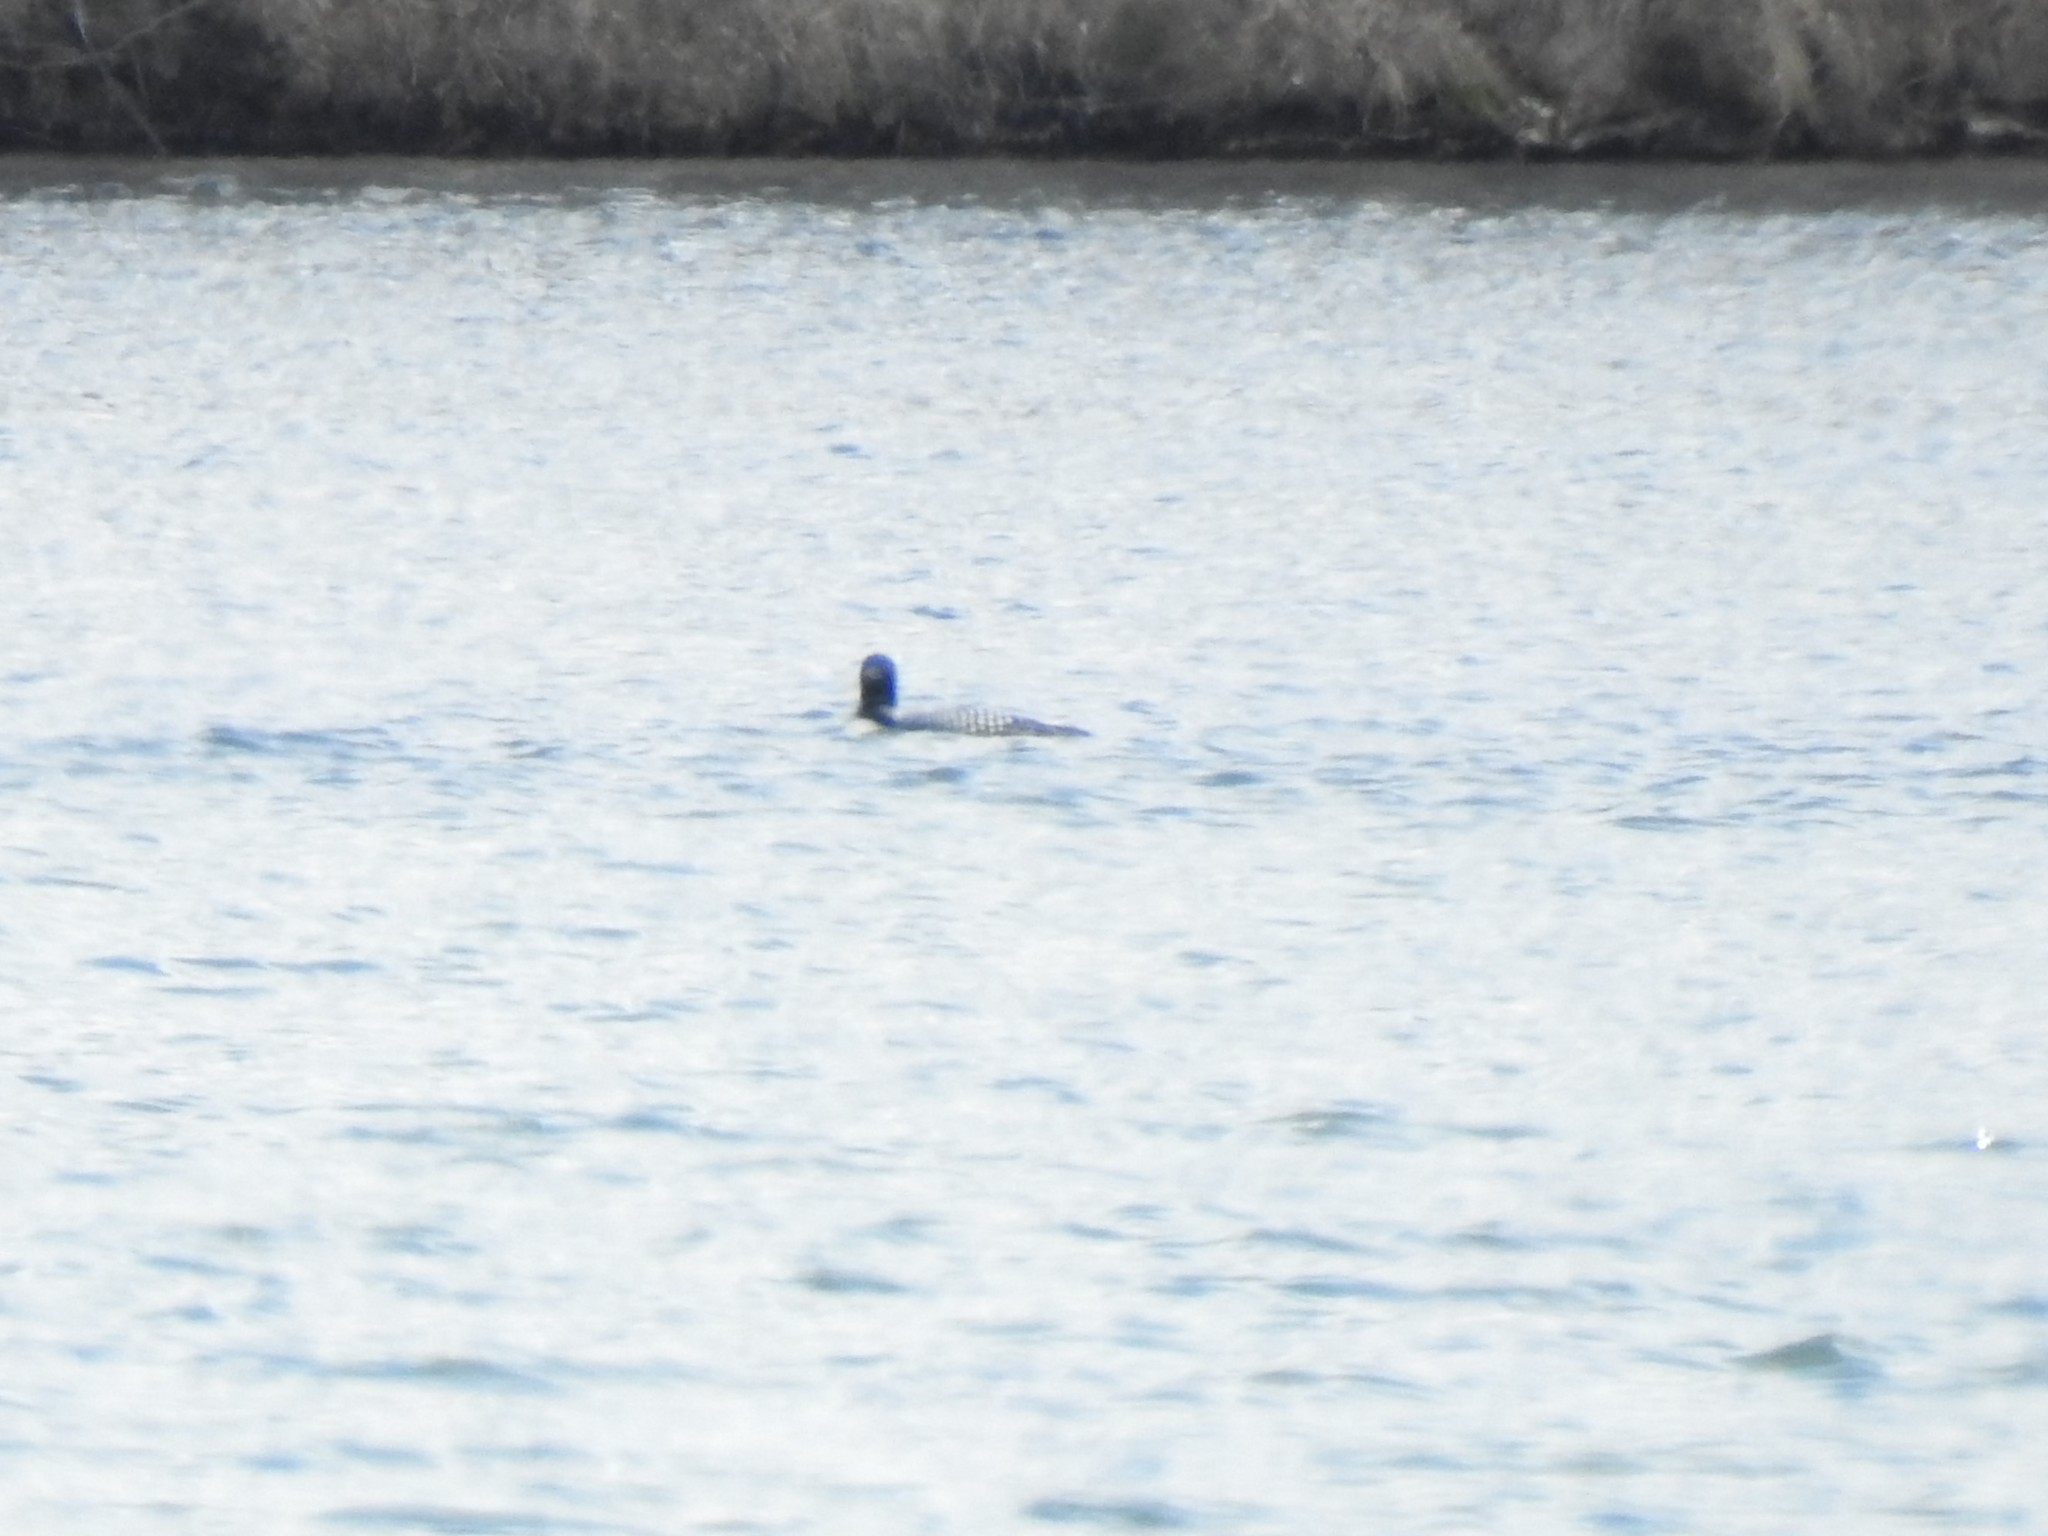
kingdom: Animalia
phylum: Chordata
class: Aves
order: Gaviiformes
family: Gaviidae
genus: Gavia
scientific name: Gavia immer
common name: Common loon
